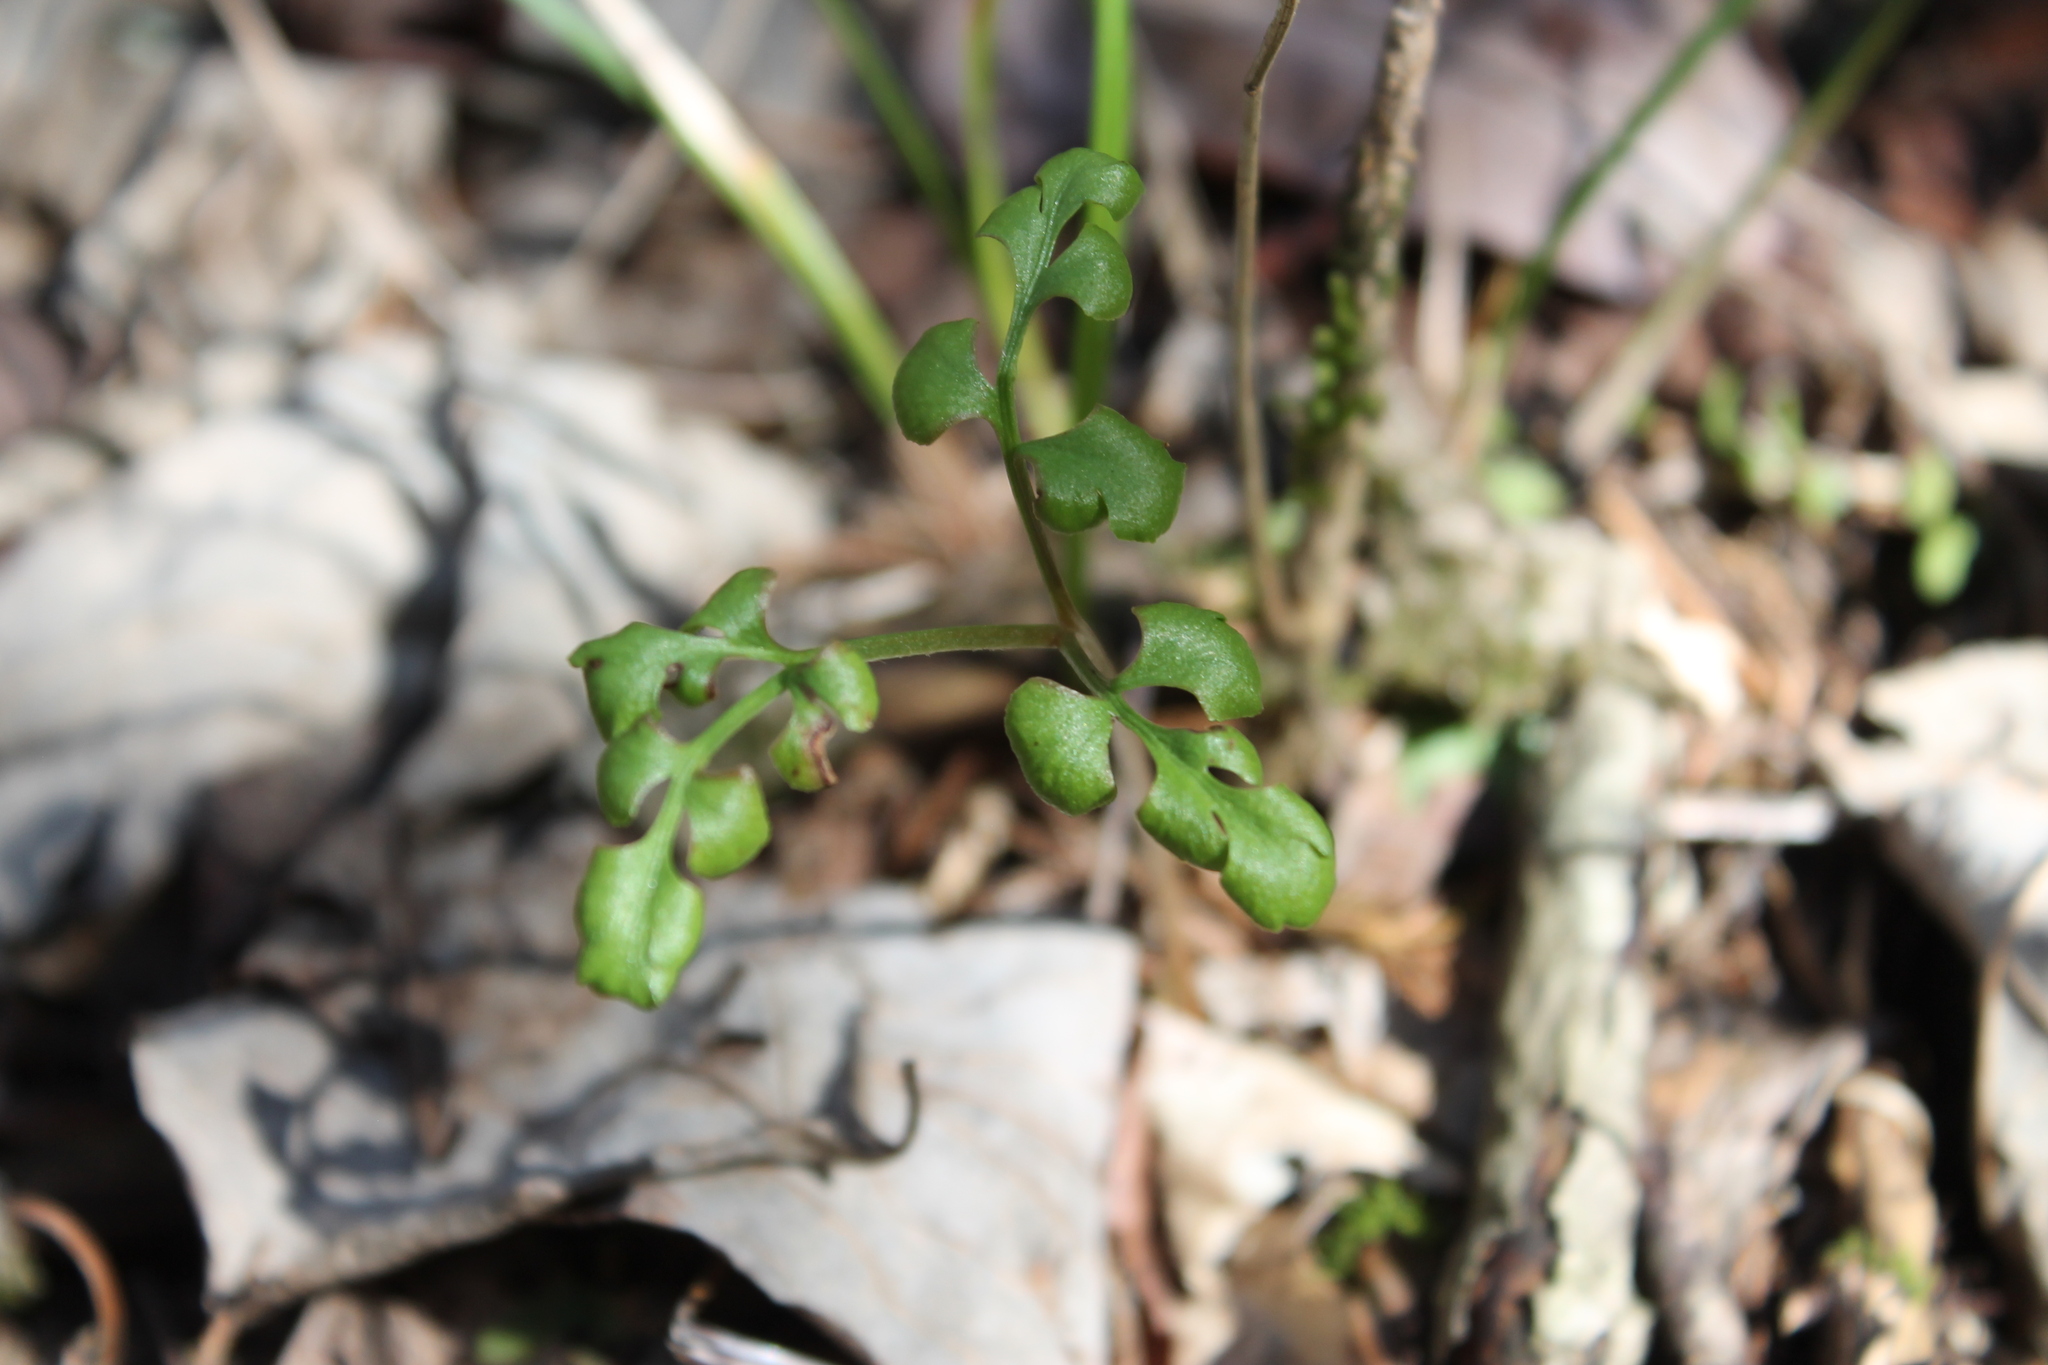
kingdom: Plantae
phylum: Tracheophyta
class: Polypodiopsida
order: Ophioglossales
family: Ophioglossaceae
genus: Sceptridium
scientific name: Sceptridium jenmanii
